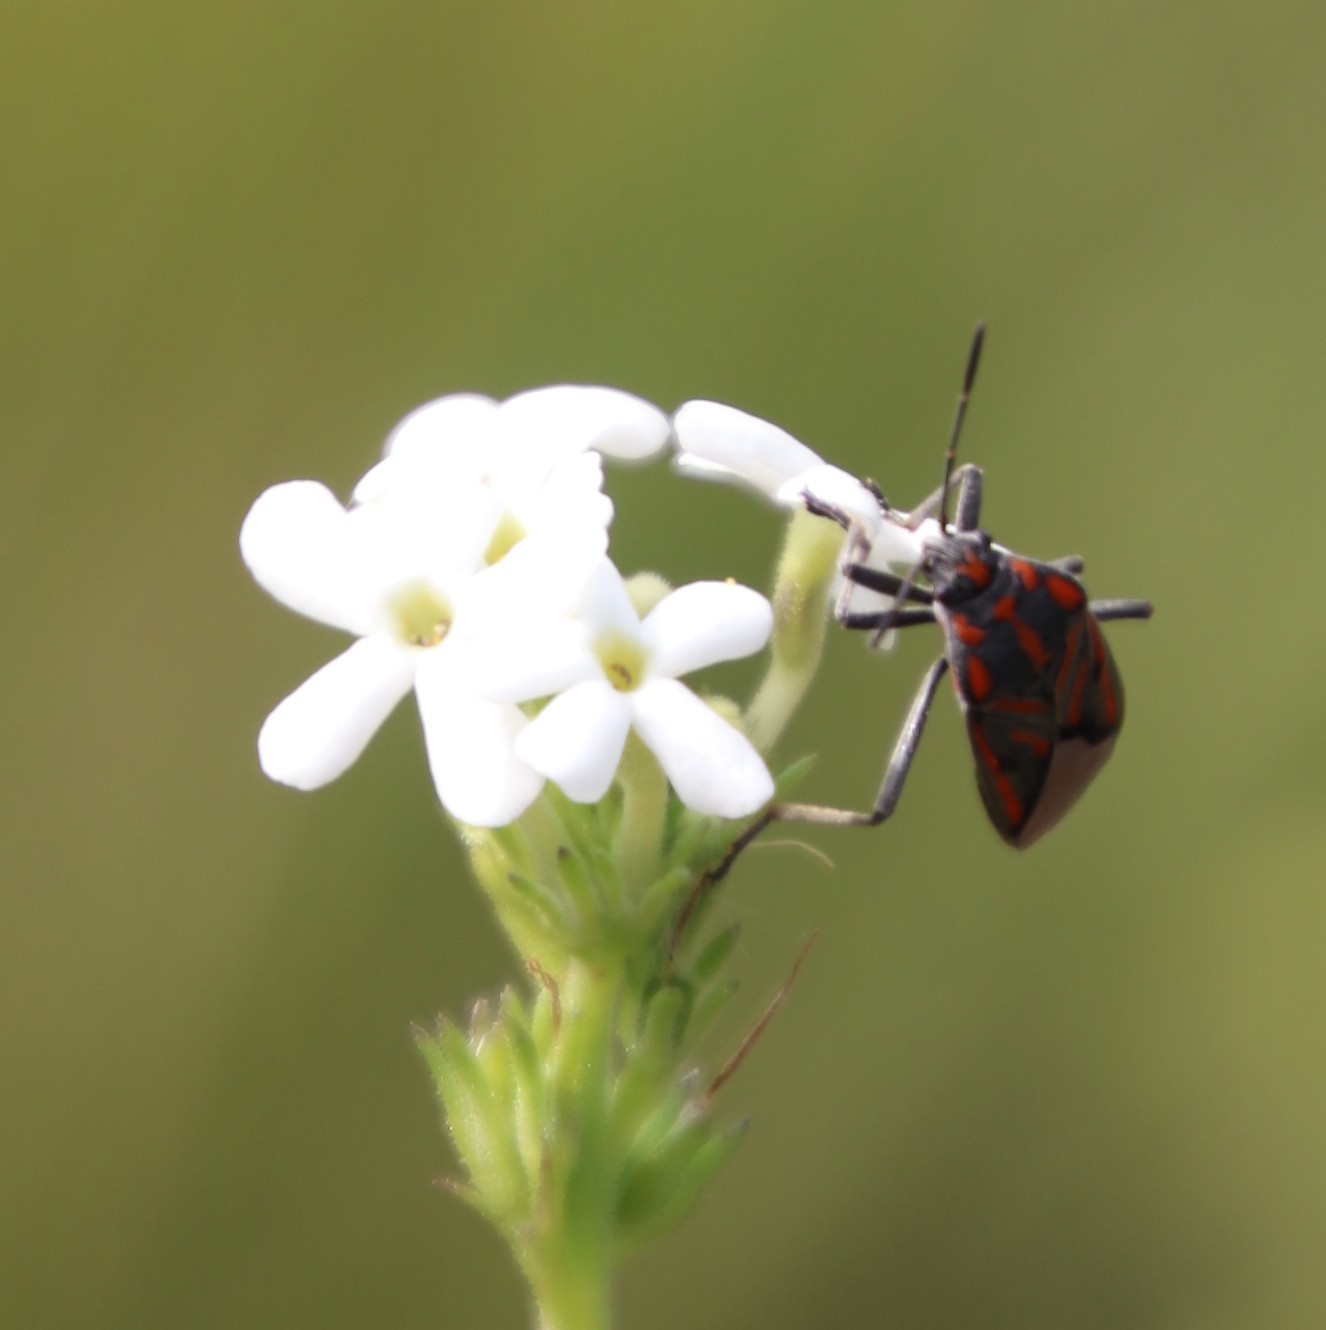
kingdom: Plantae
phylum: Tracheophyta
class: Magnoliopsida
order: Lamiales
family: Scrophulariaceae
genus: Manulea
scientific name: Manulea buchneroides
